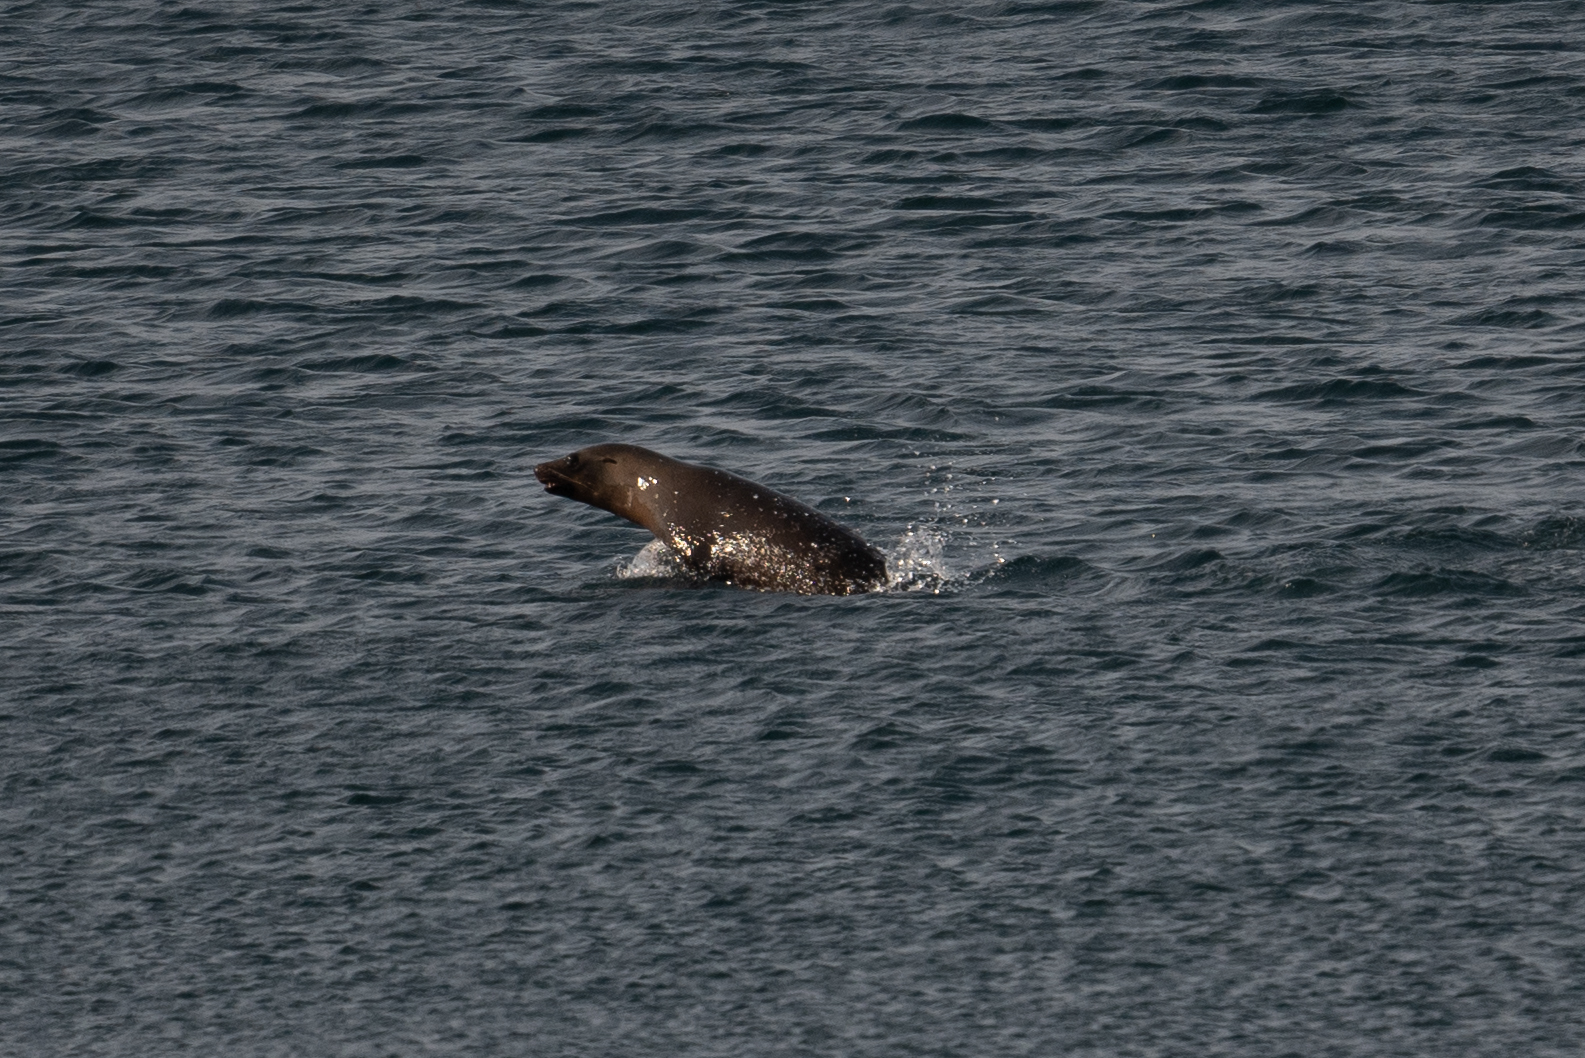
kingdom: Animalia
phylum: Chordata
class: Mammalia
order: Carnivora
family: Otariidae
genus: Zalophus
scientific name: Zalophus californianus
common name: California sea lion
